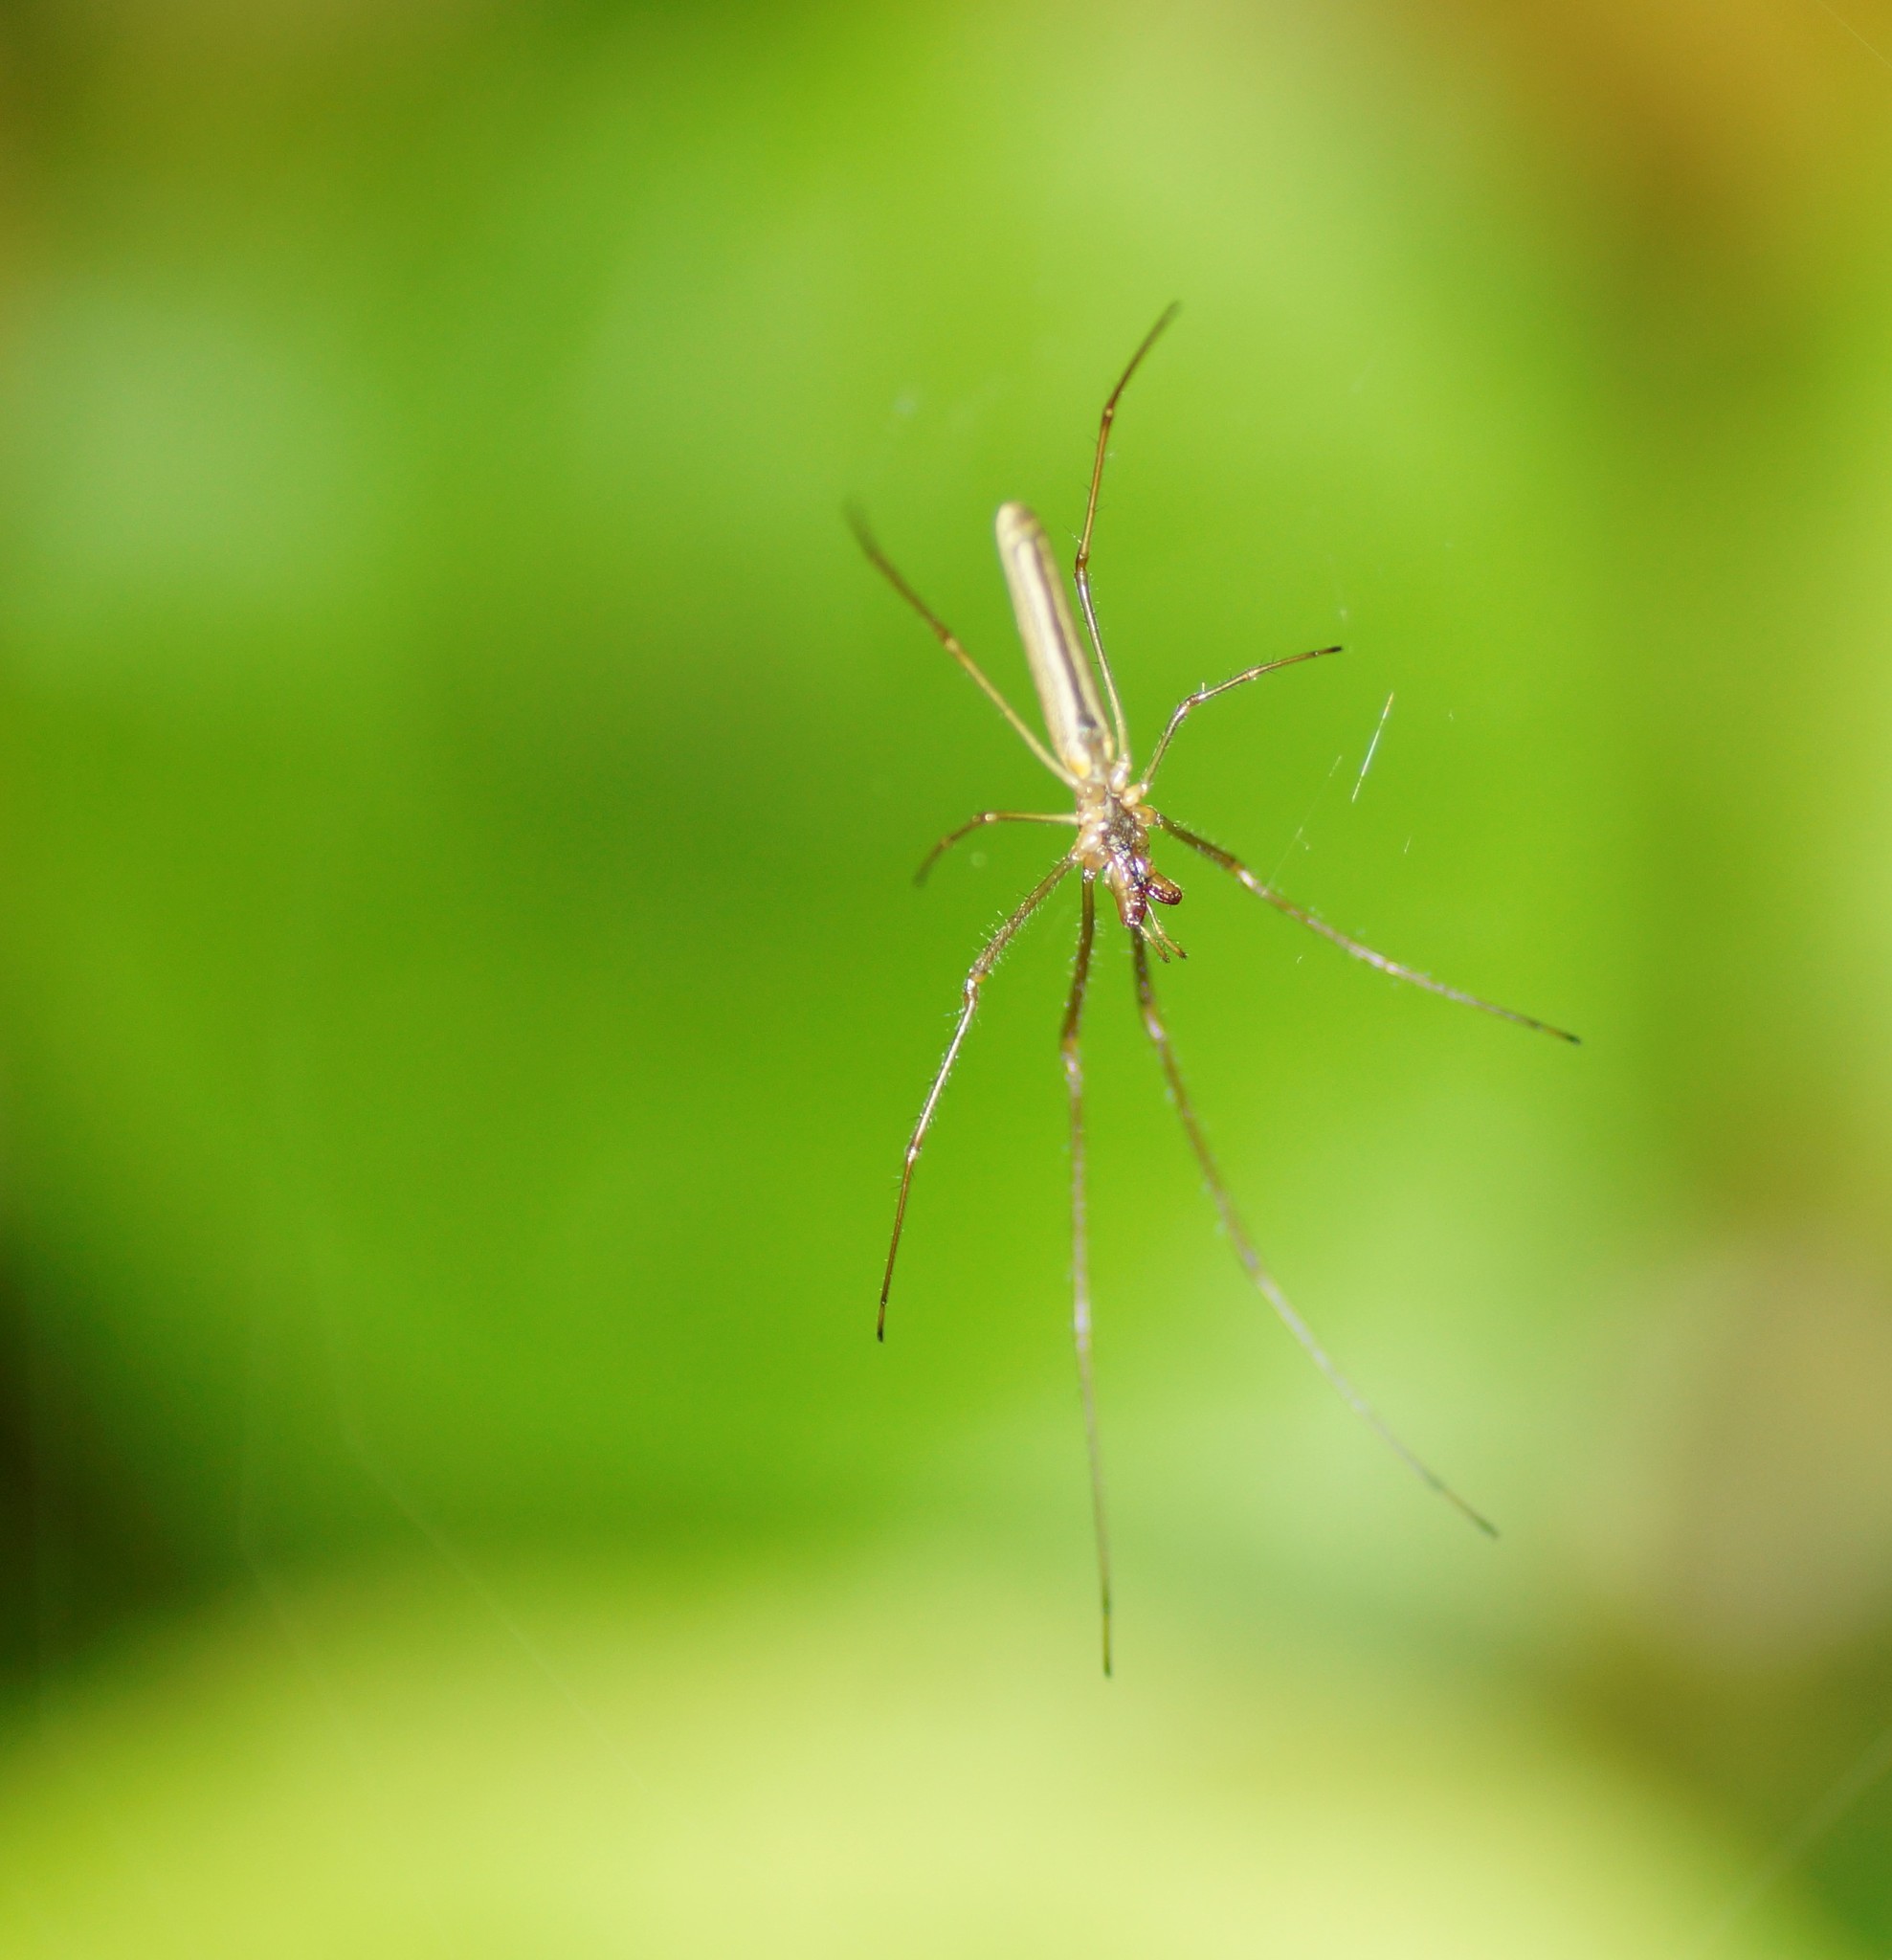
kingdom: Animalia
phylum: Arthropoda
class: Arachnida
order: Araneae
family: Tetragnathidae
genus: Tetragnatha
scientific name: Tetragnatha nitens
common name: Longjawed orb weavers
